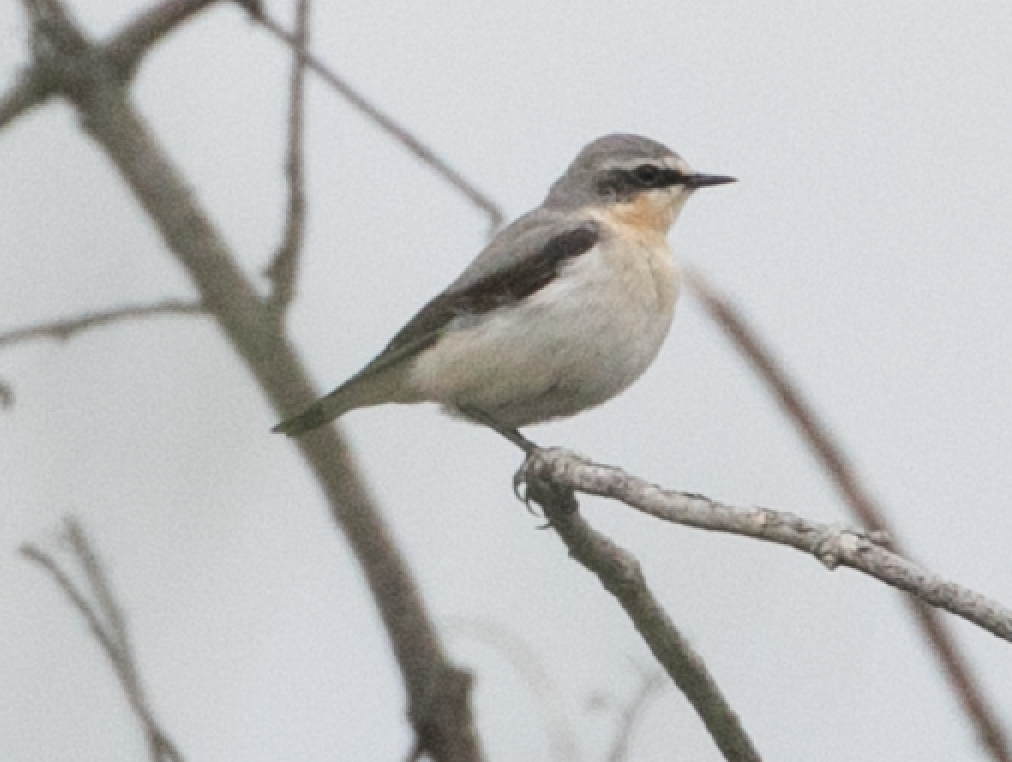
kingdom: Animalia
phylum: Chordata
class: Aves
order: Passeriformes
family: Muscicapidae
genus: Oenanthe
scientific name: Oenanthe oenanthe
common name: Northern wheatear
